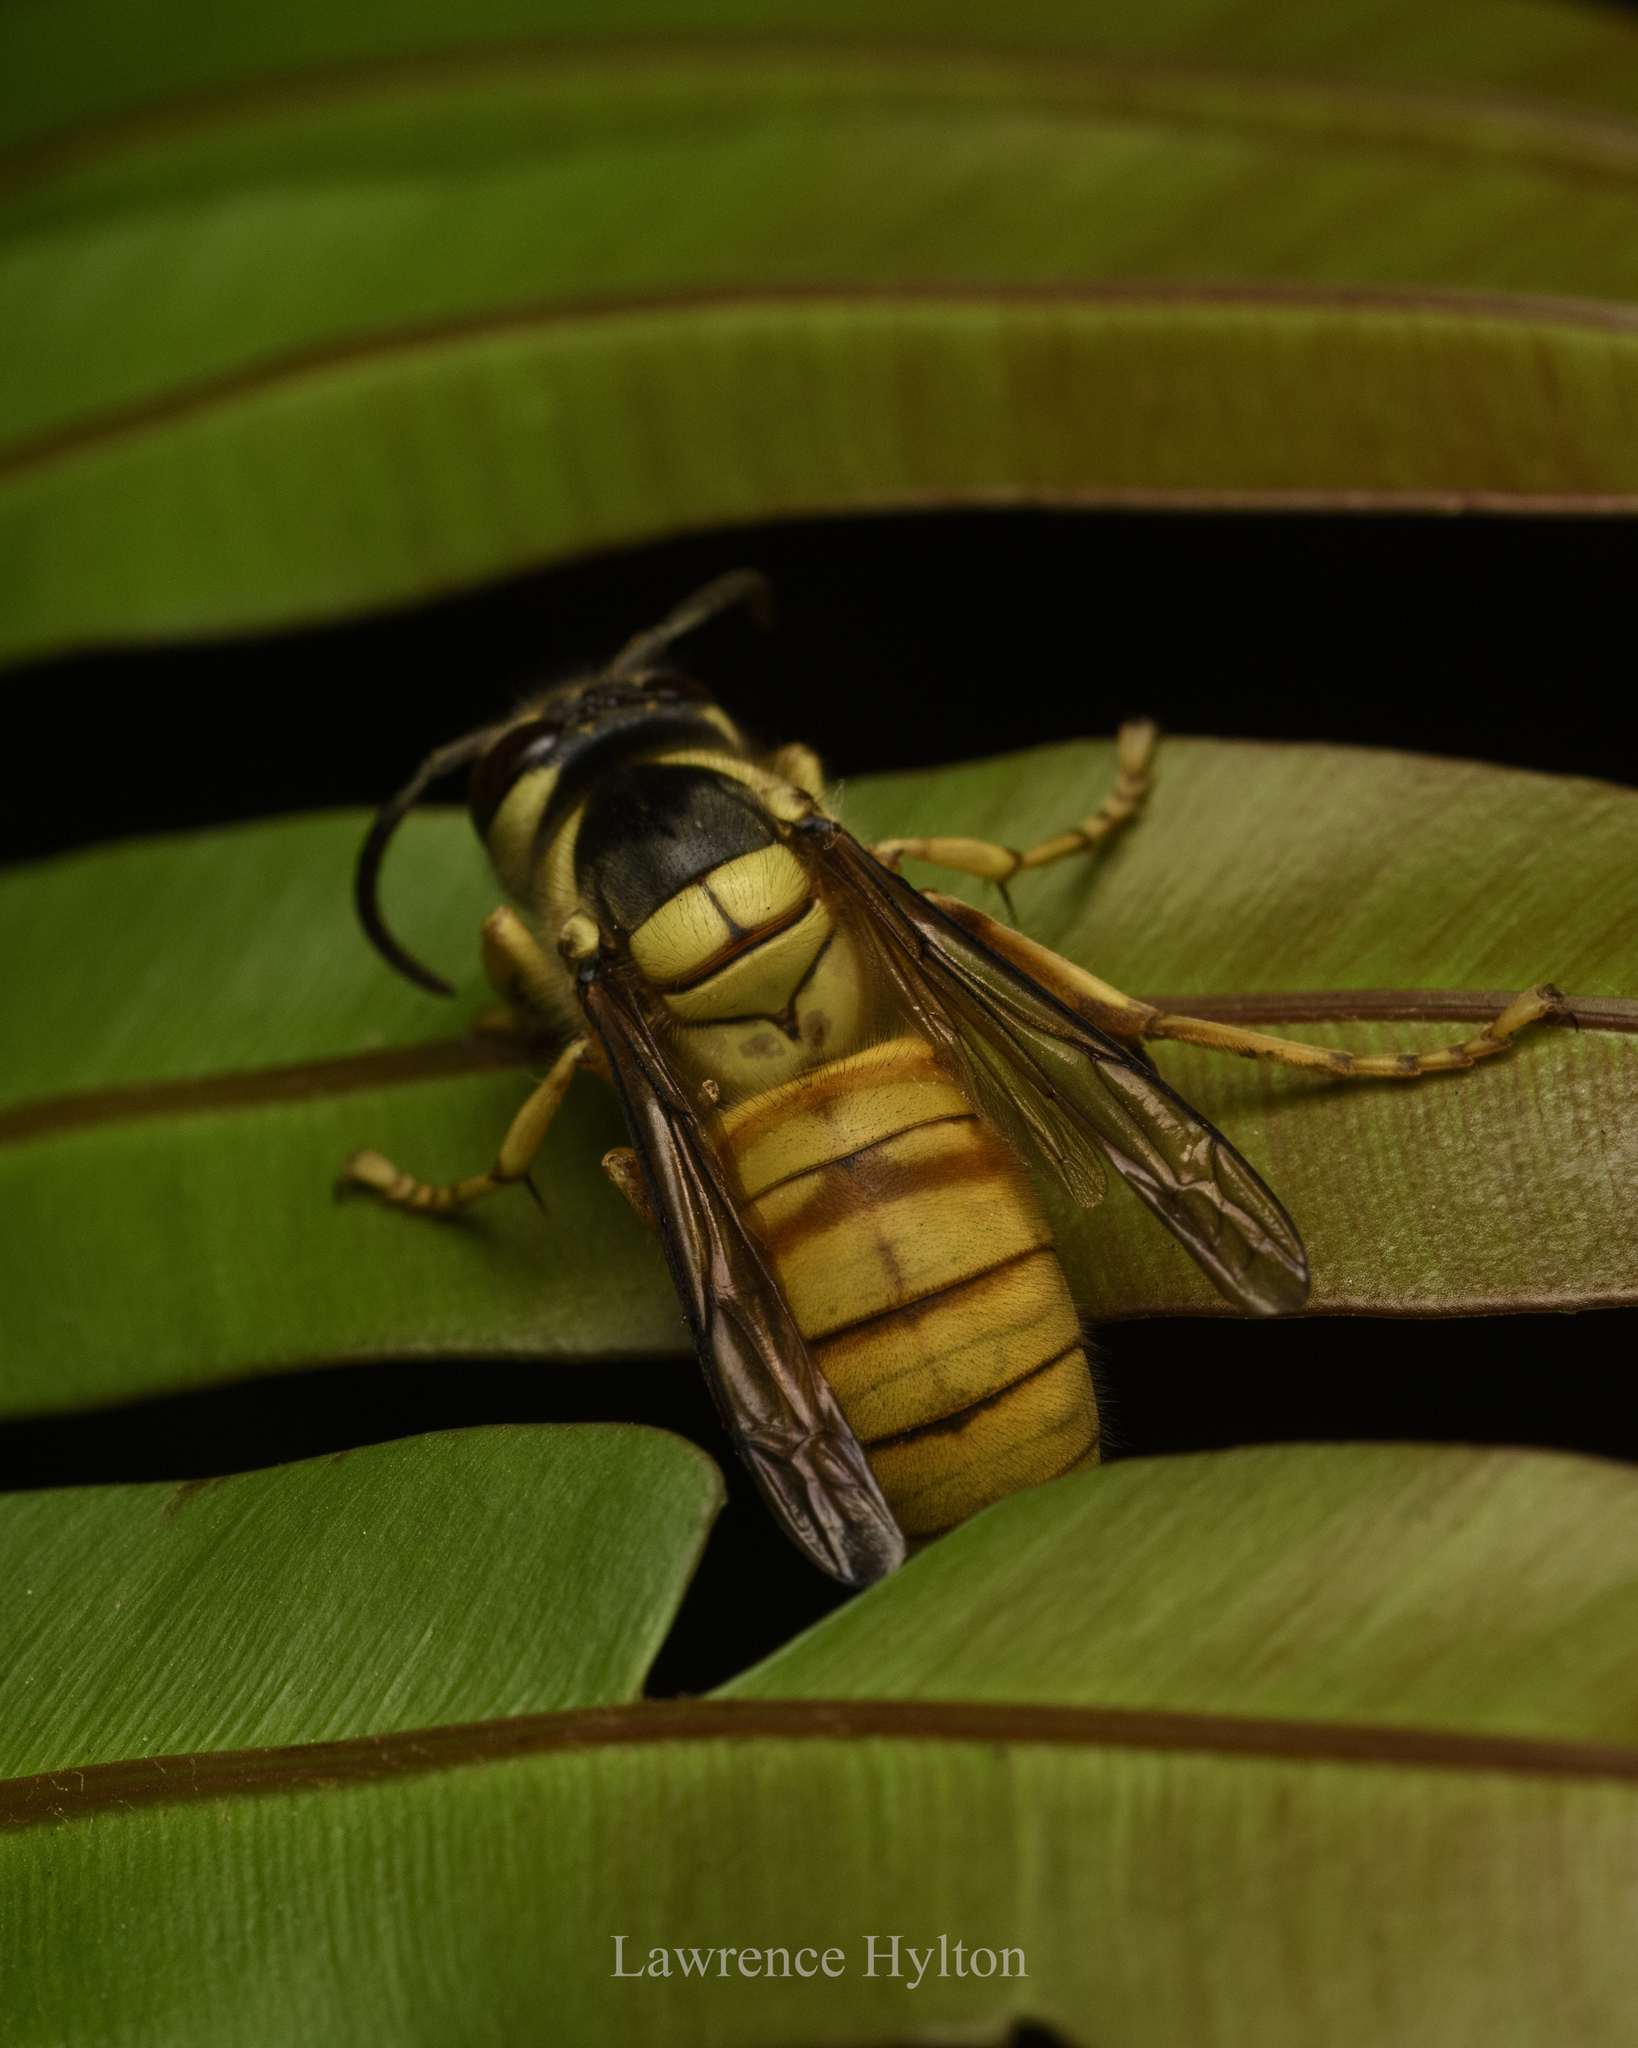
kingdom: Animalia
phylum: Arthropoda
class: Insecta
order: Hymenoptera
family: Vespidae
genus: Vespa
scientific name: Vespa bicolor
